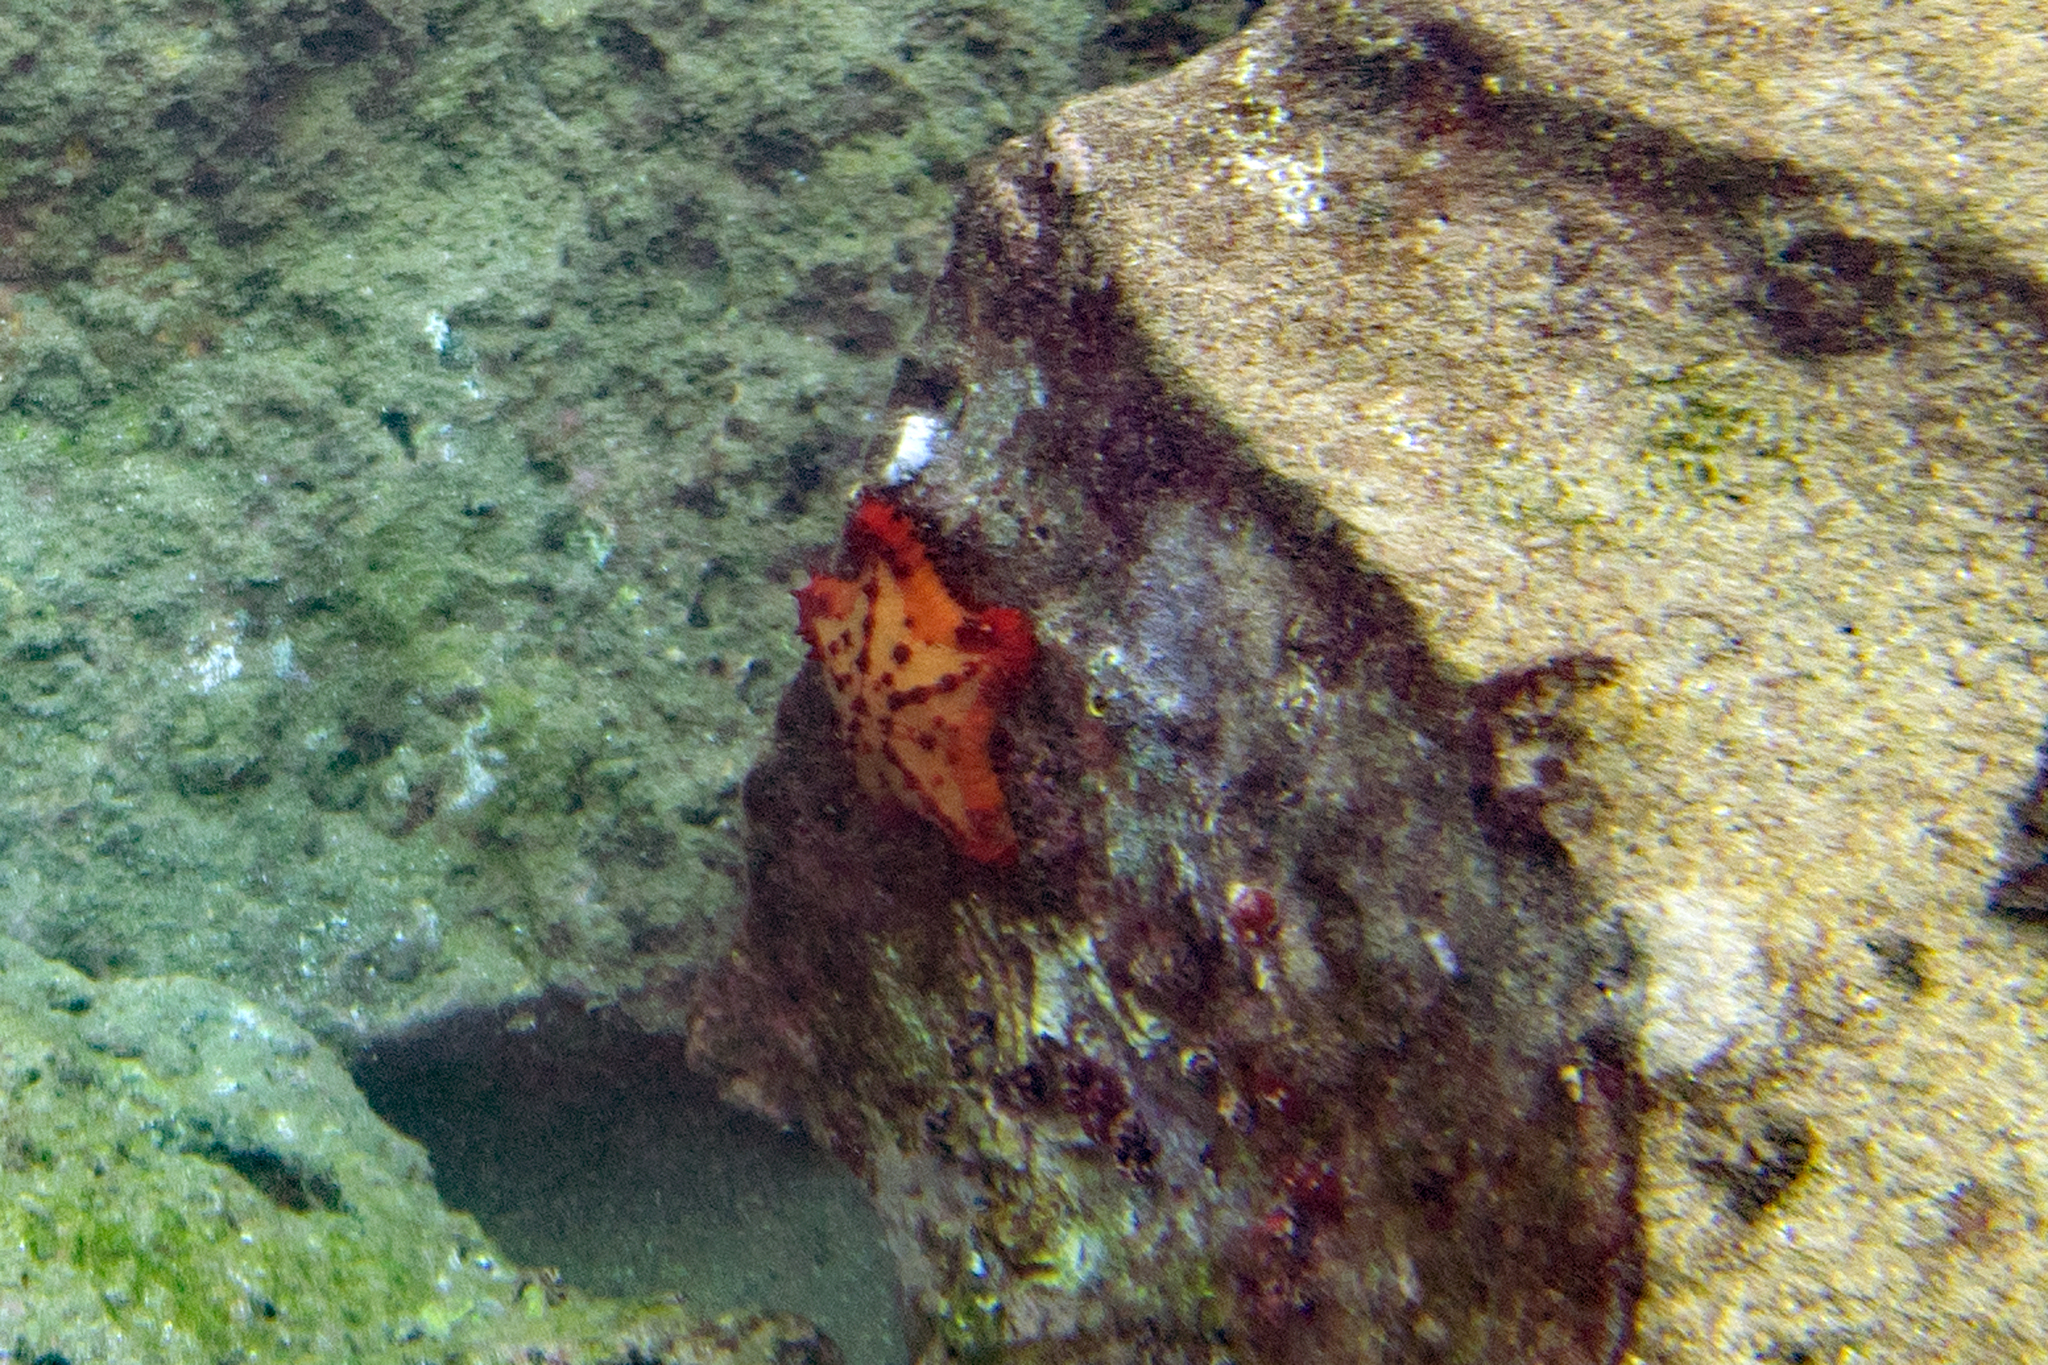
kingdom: Animalia
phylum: Echinodermata
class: Asteroidea
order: Valvatida
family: Oreasteridae
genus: Nidorellia
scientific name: Nidorellia armata
